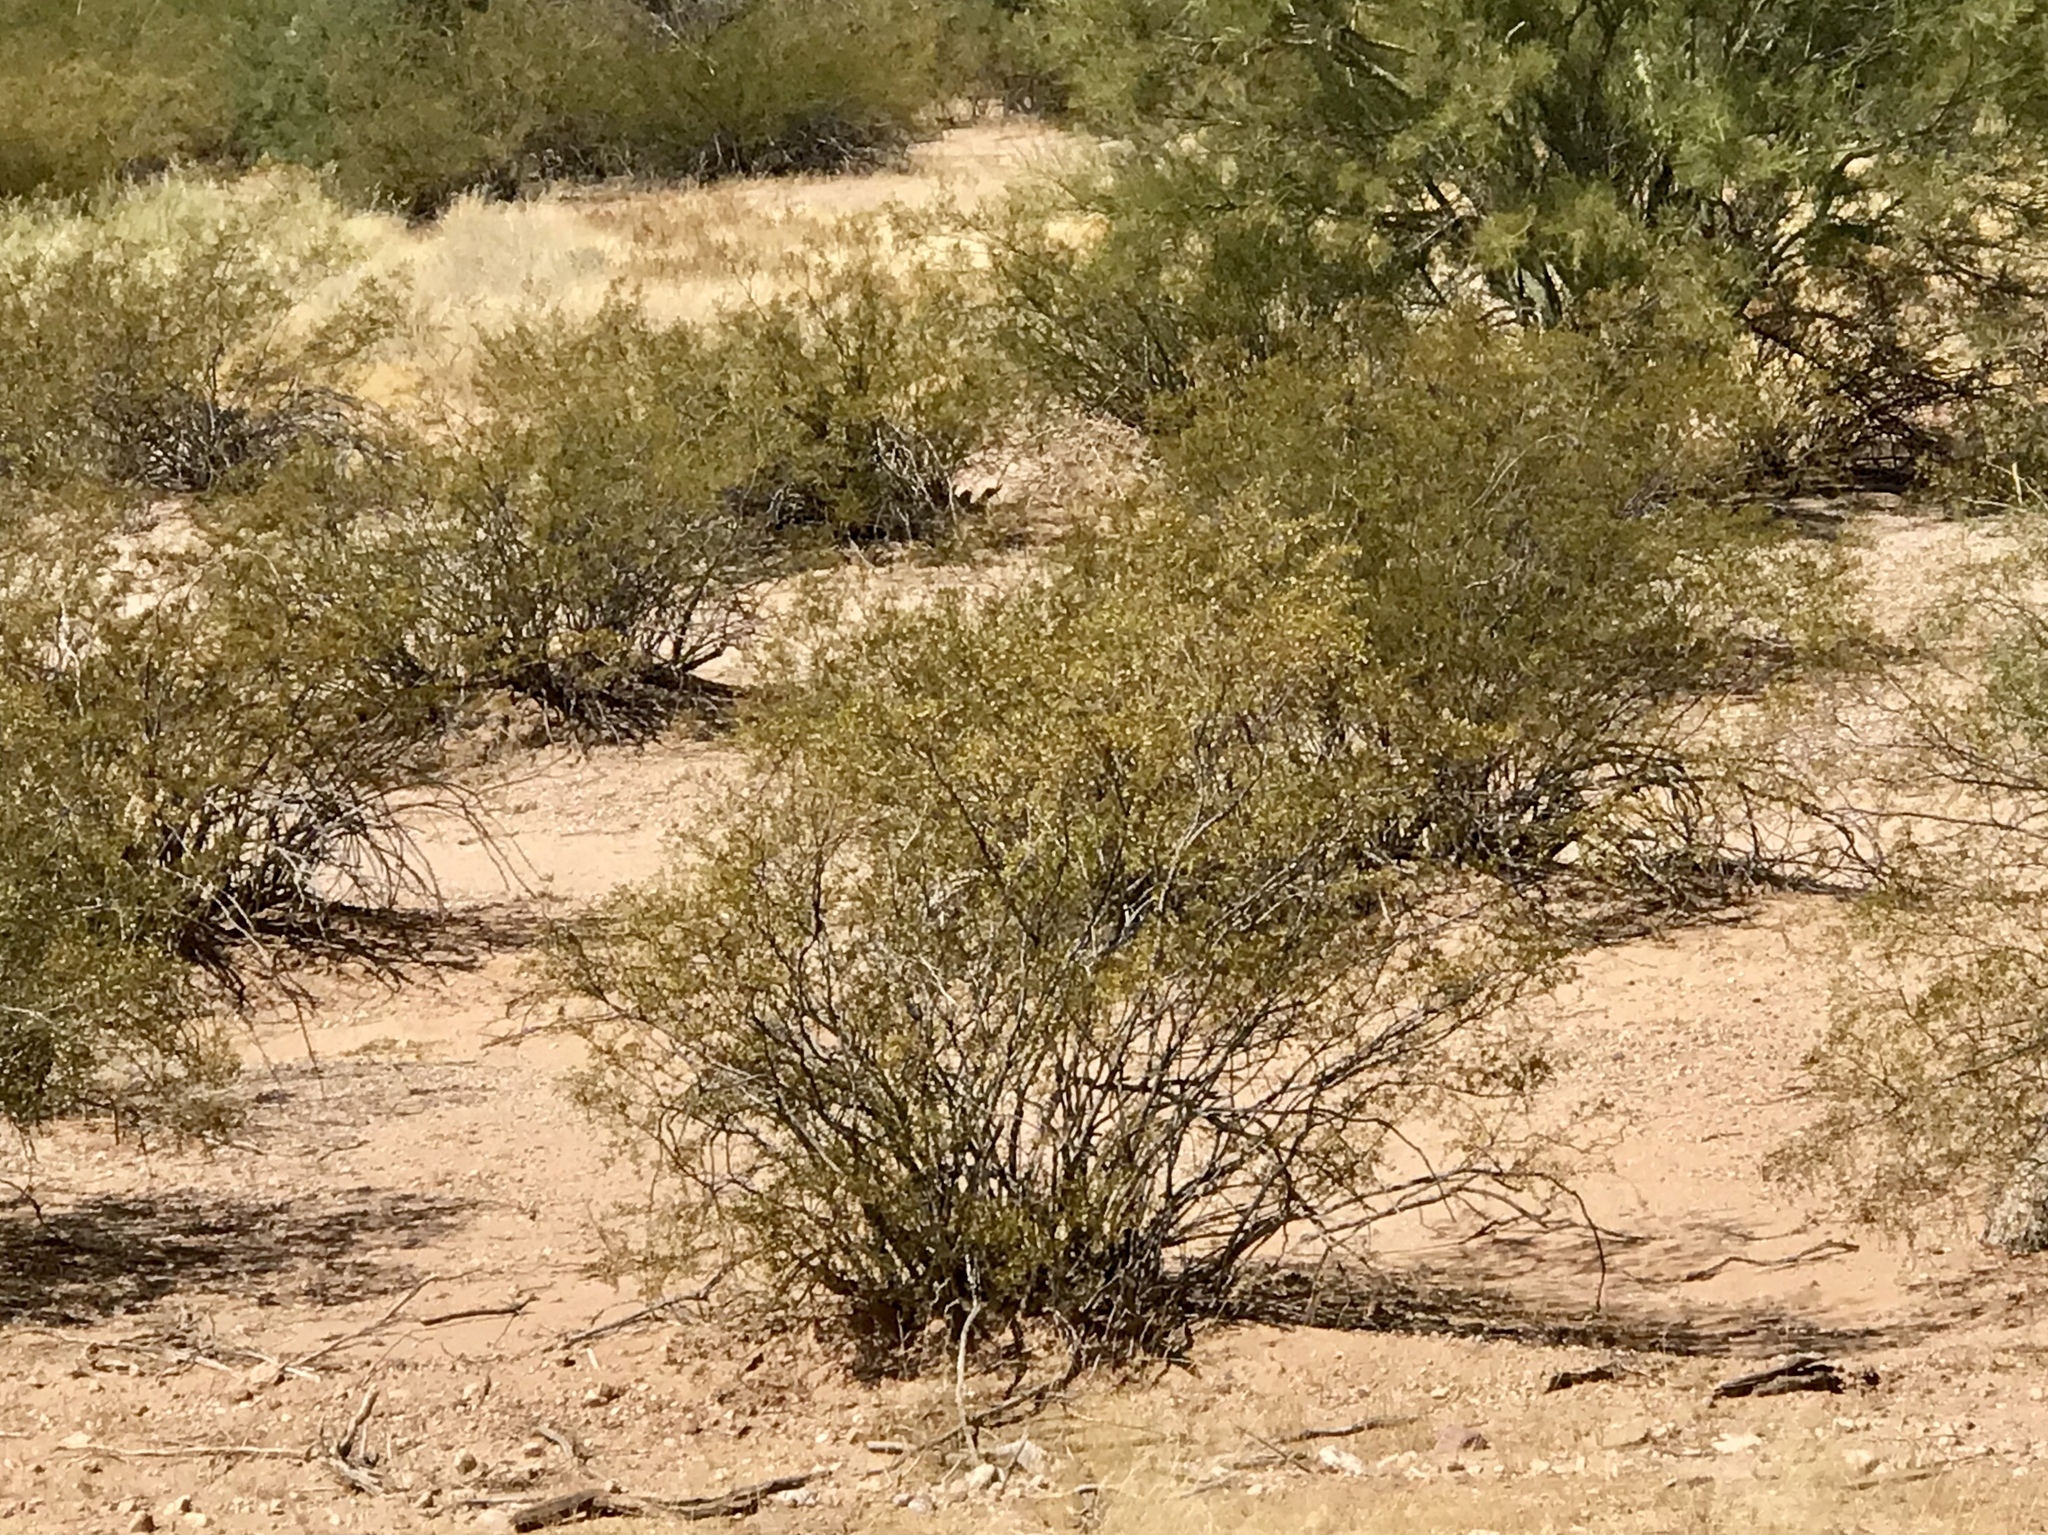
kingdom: Plantae
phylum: Tracheophyta
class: Magnoliopsida
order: Zygophyllales
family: Zygophyllaceae
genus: Larrea
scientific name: Larrea tridentata
